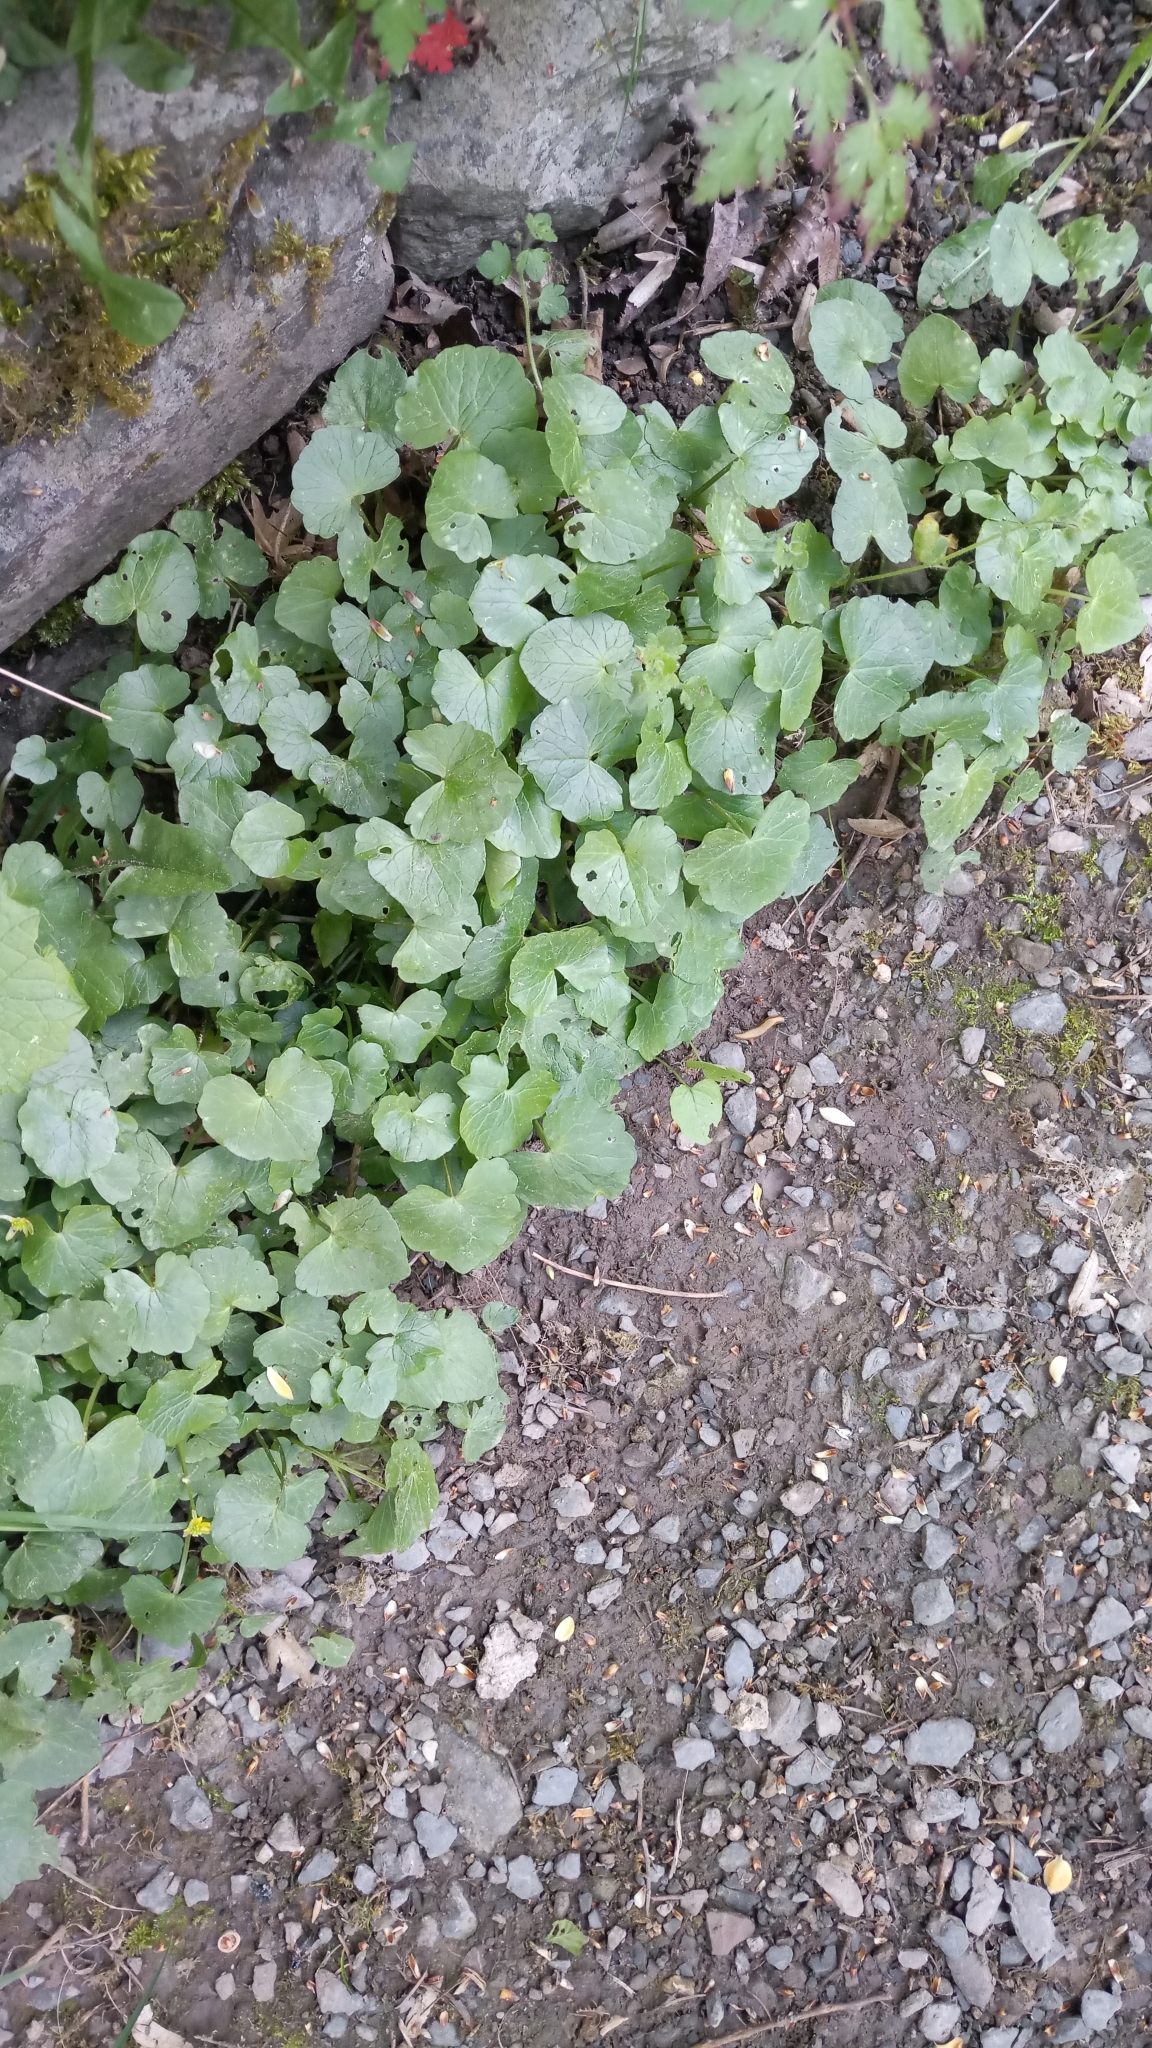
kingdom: Plantae
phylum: Tracheophyta
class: Magnoliopsida
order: Ranunculales
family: Ranunculaceae
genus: Ficaria
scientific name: Ficaria verna
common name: Lesser celandine
